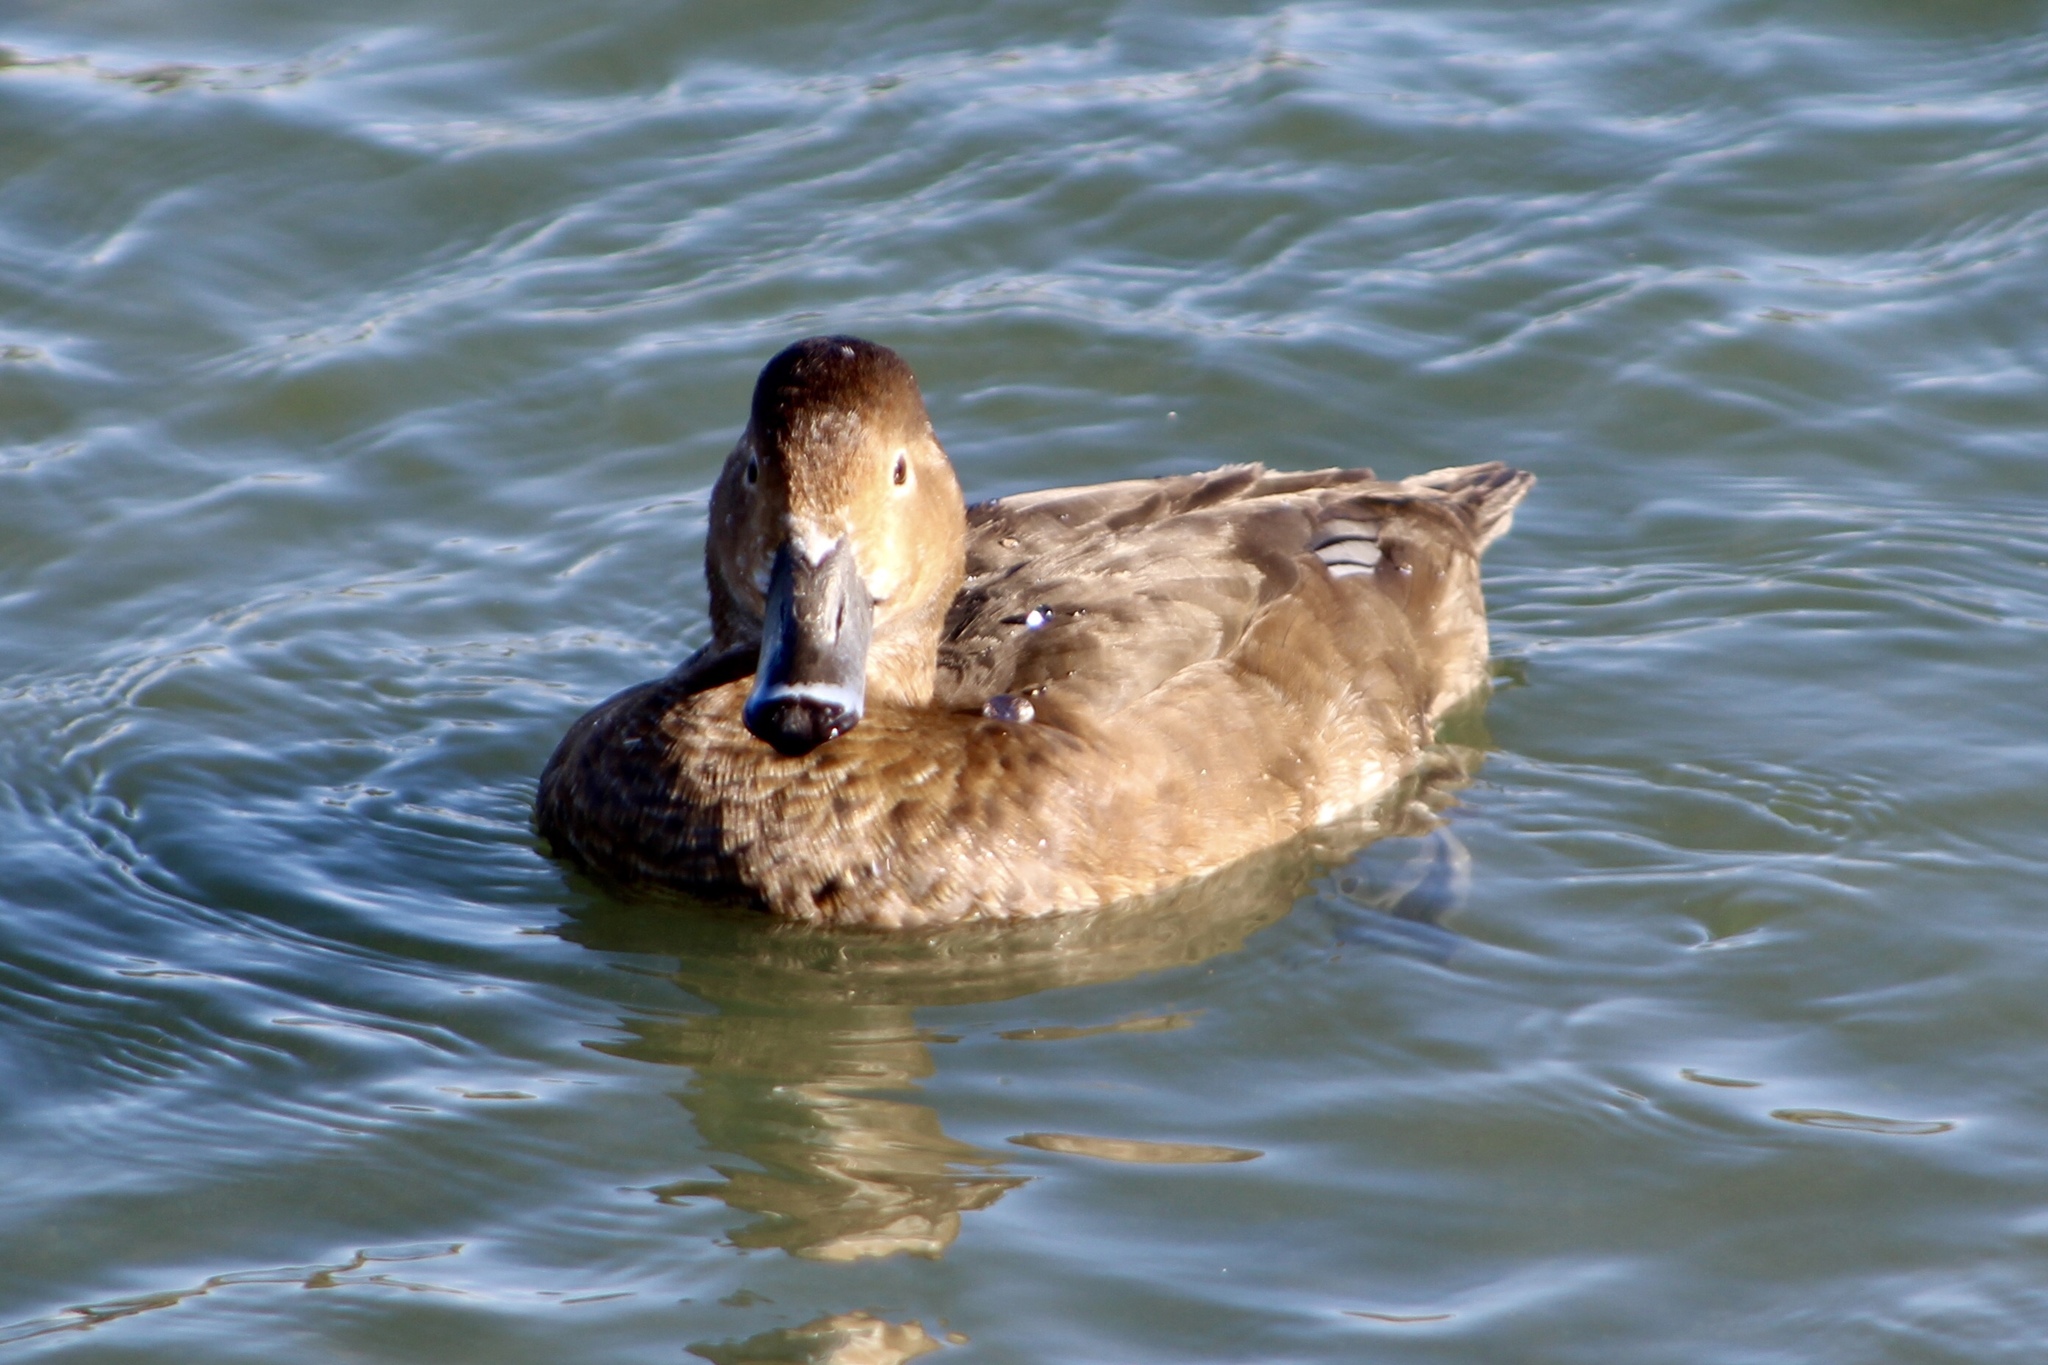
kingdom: Animalia
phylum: Chordata
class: Aves
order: Anseriformes
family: Anatidae
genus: Aythya
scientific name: Aythya americana
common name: Redhead
